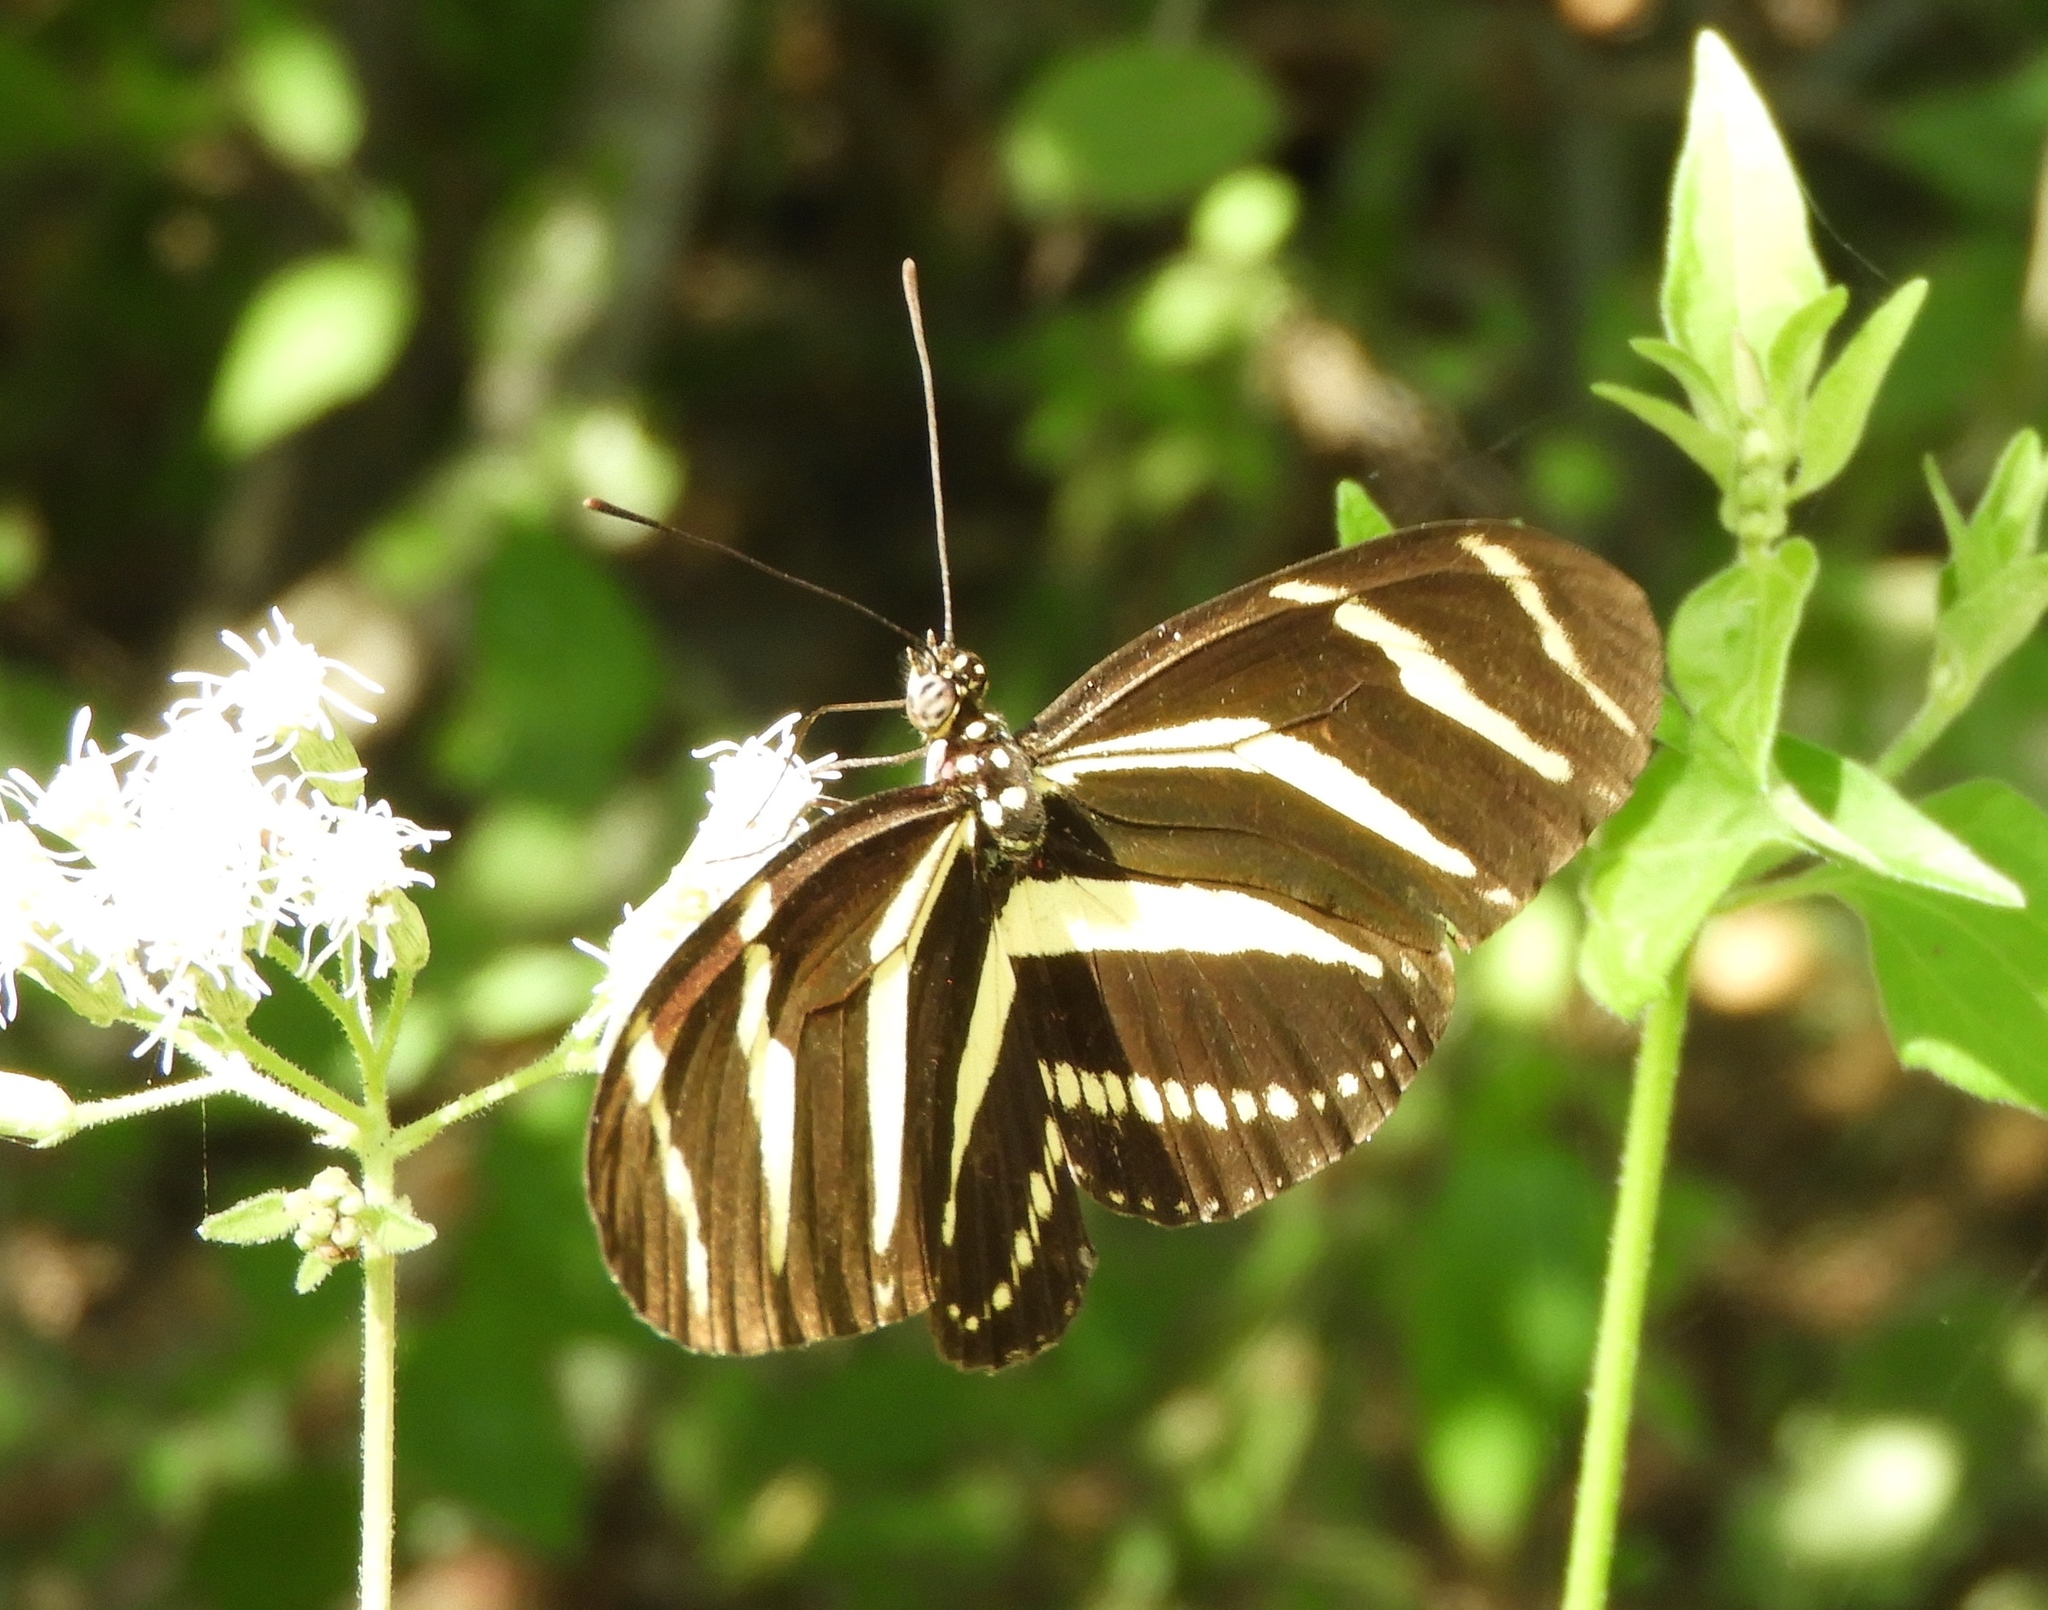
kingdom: Animalia
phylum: Arthropoda
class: Insecta
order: Lepidoptera
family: Nymphalidae
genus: Heliconius
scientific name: Heliconius charithonia
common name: Zebra long wing
